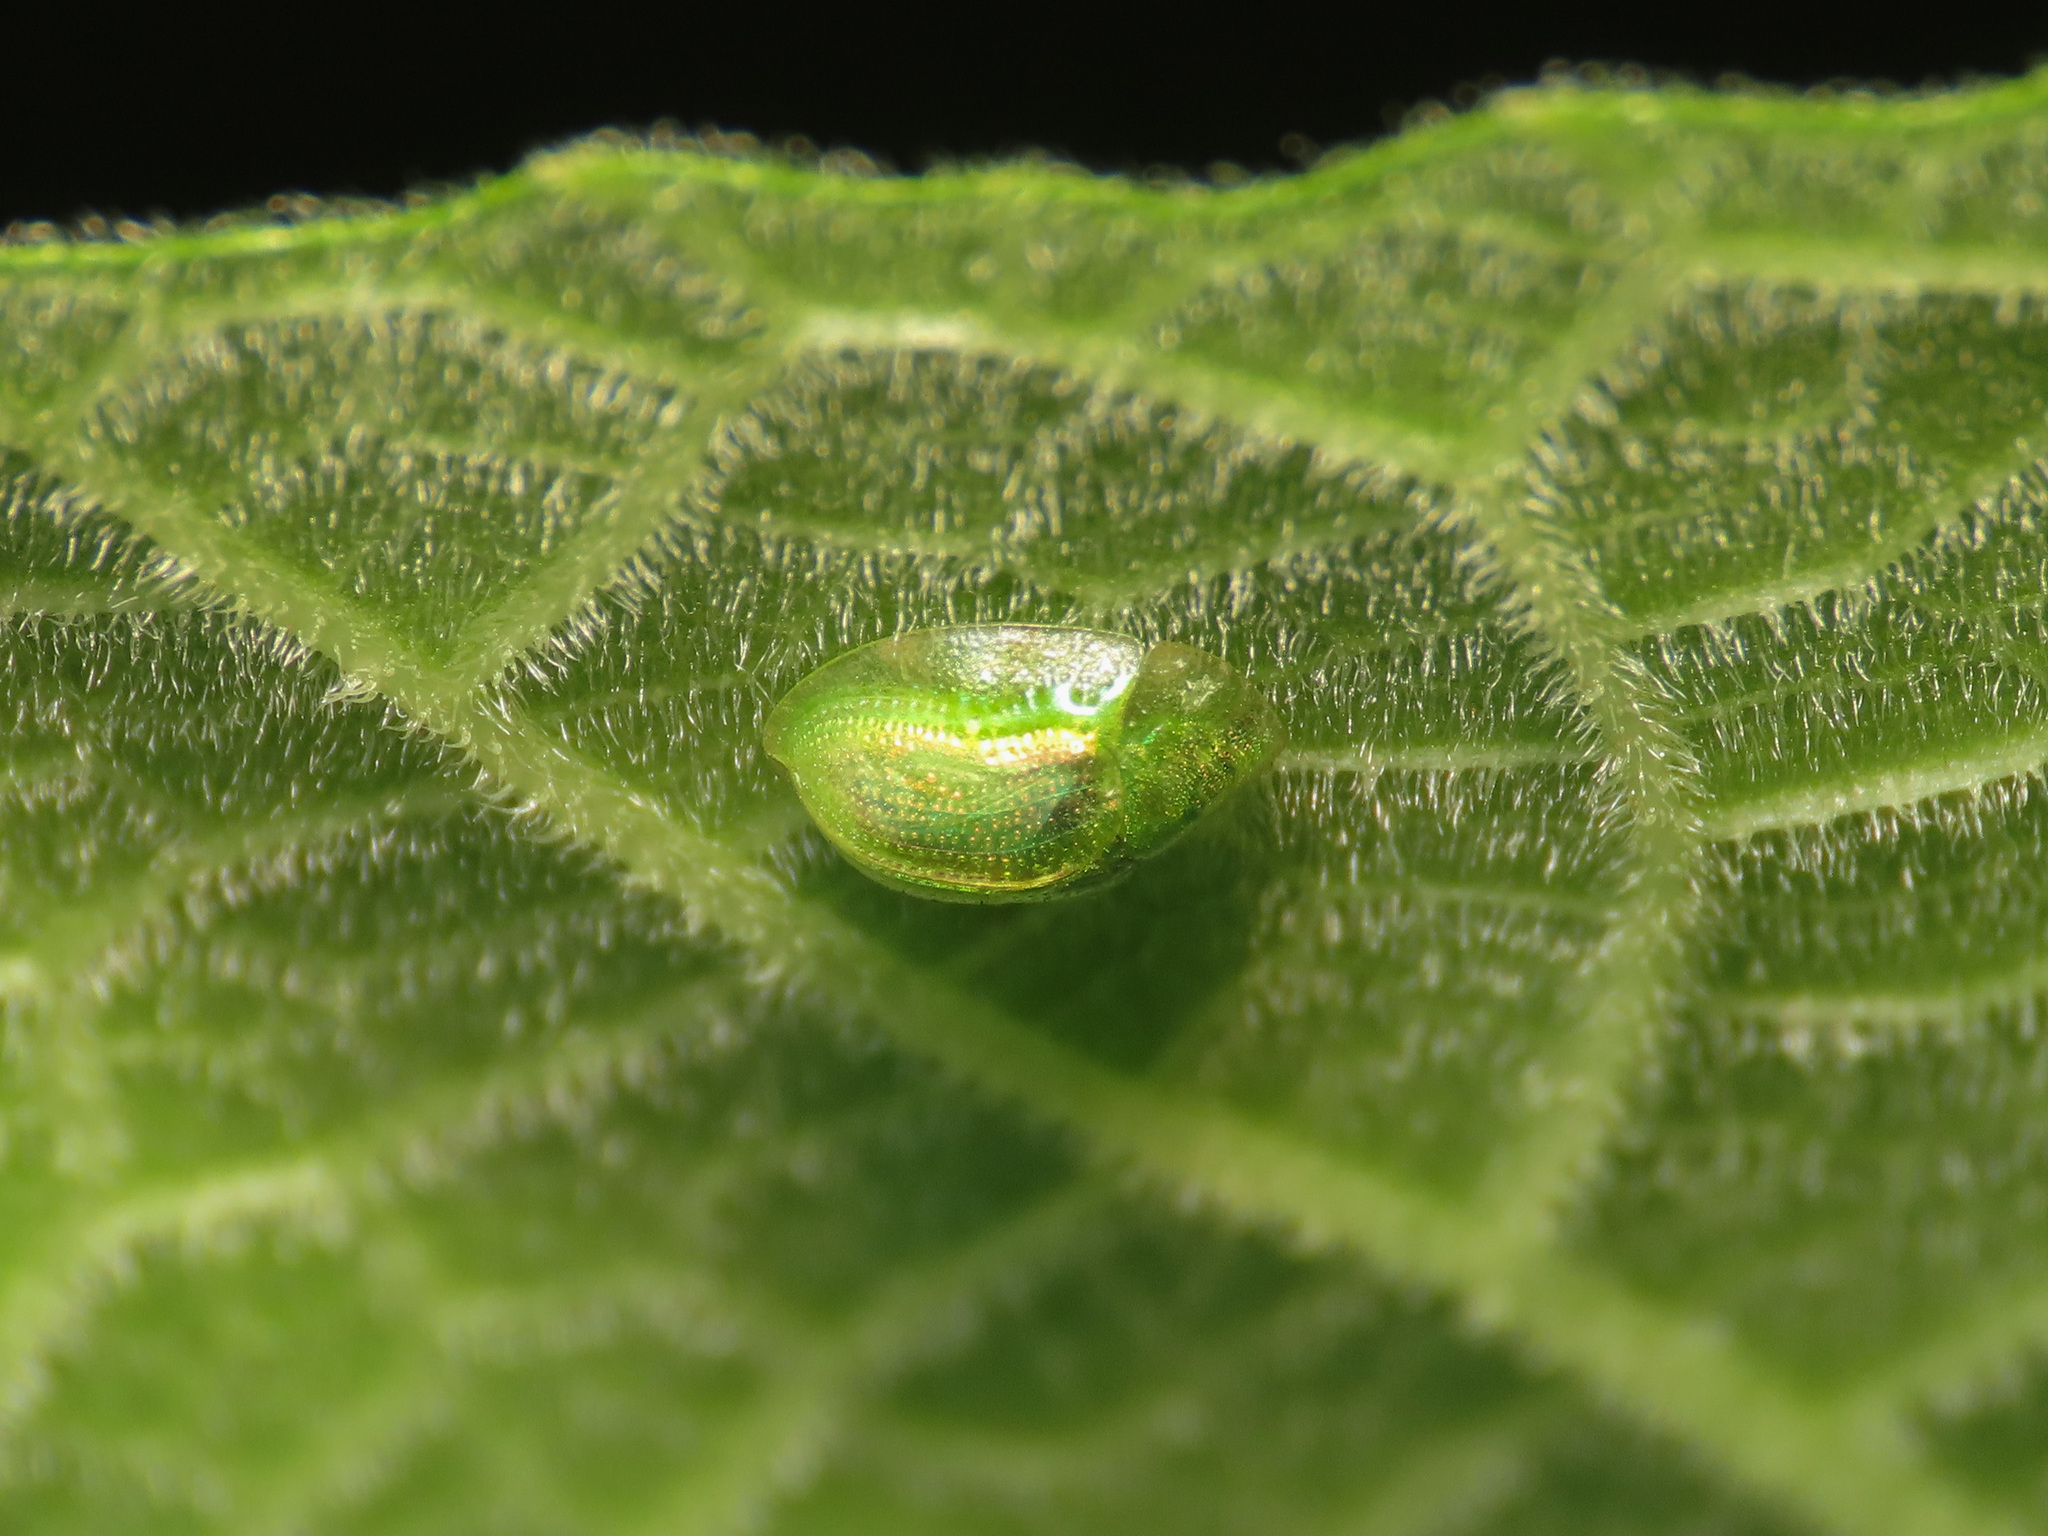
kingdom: Animalia
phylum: Arthropoda
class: Insecta
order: Coleoptera
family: Chrysomelidae
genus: Cassida
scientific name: Cassida margaritacea
